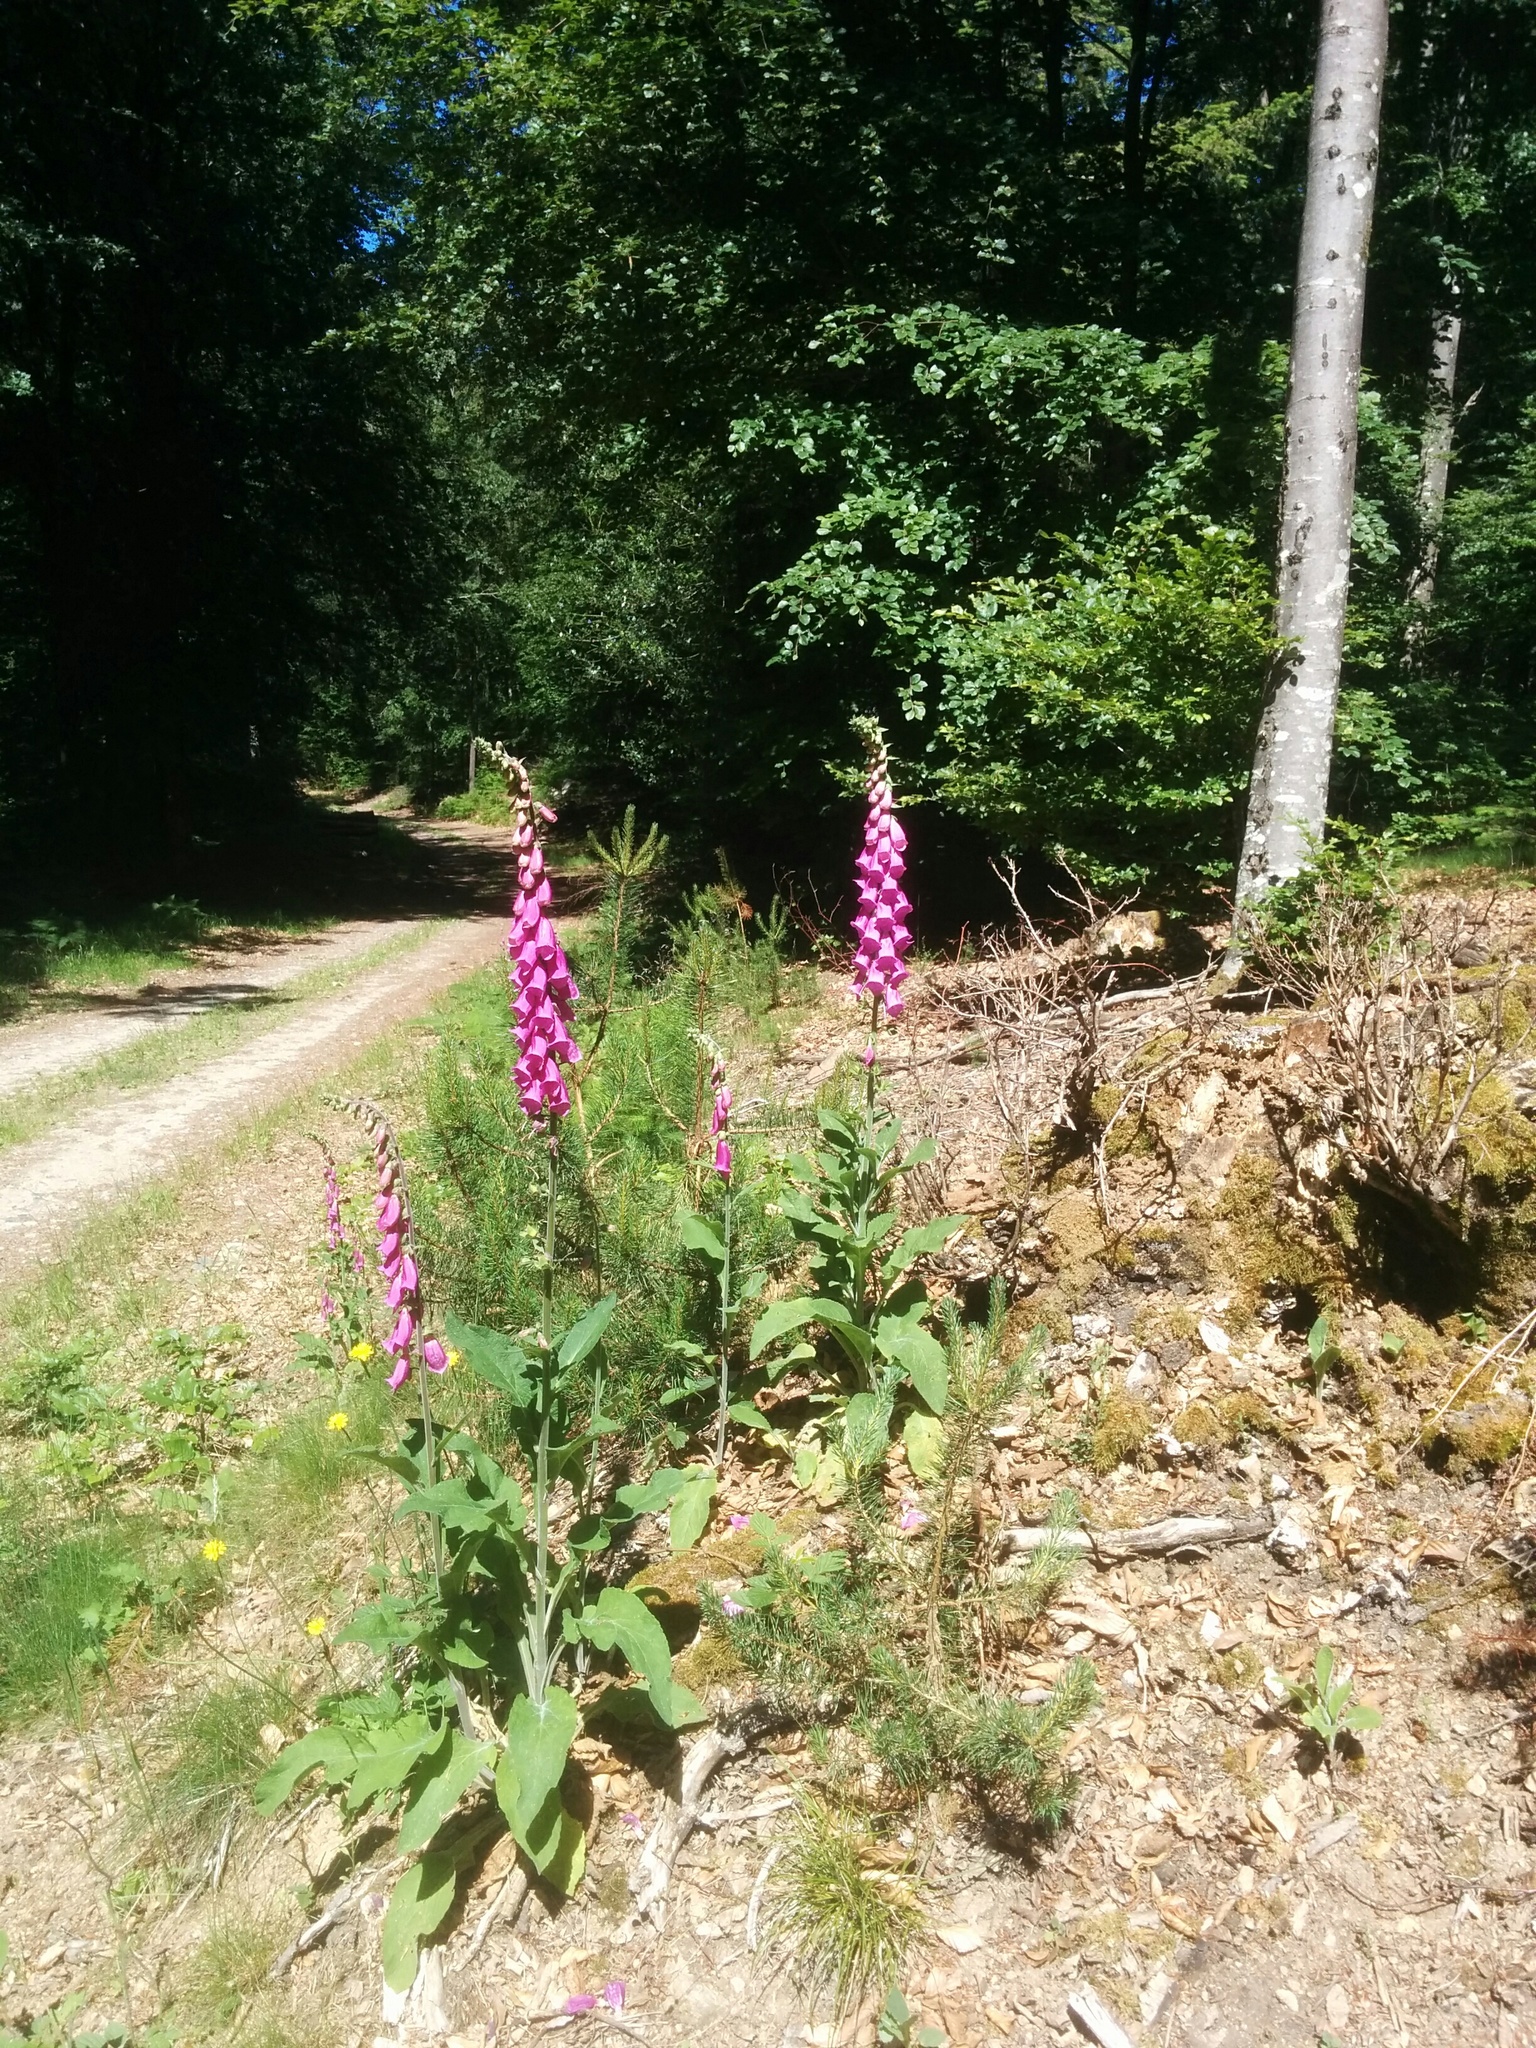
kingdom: Plantae
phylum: Tracheophyta
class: Magnoliopsida
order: Lamiales
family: Plantaginaceae
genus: Digitalis
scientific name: Digitalis purpurea
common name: Foxglove
